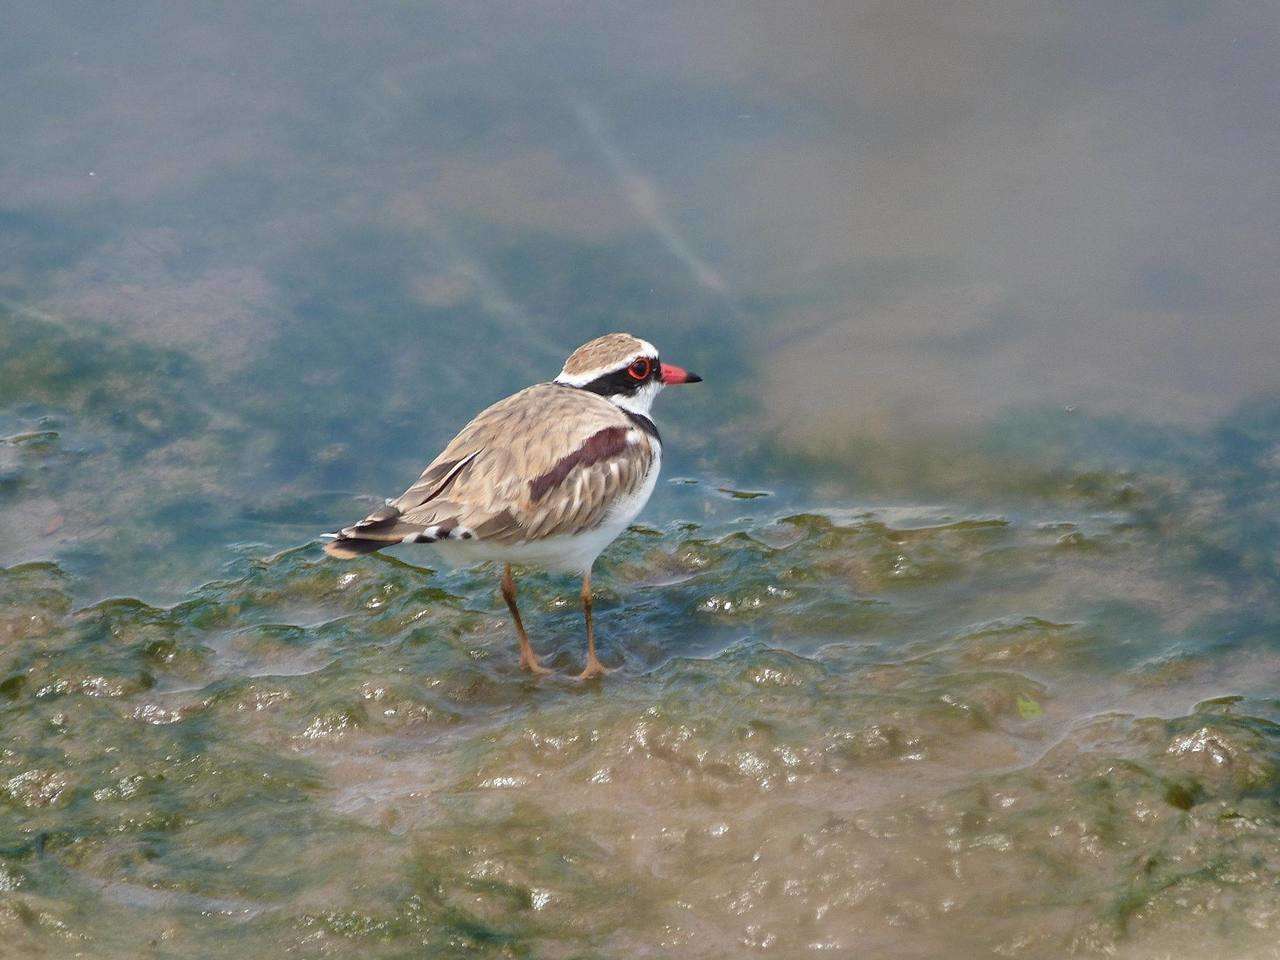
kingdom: Animalia
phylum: Chordata
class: Aves
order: Charadriiformes
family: Charadriidae
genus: Elseyornis
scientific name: Elseyornis melanops
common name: Black-fronted dotterel
